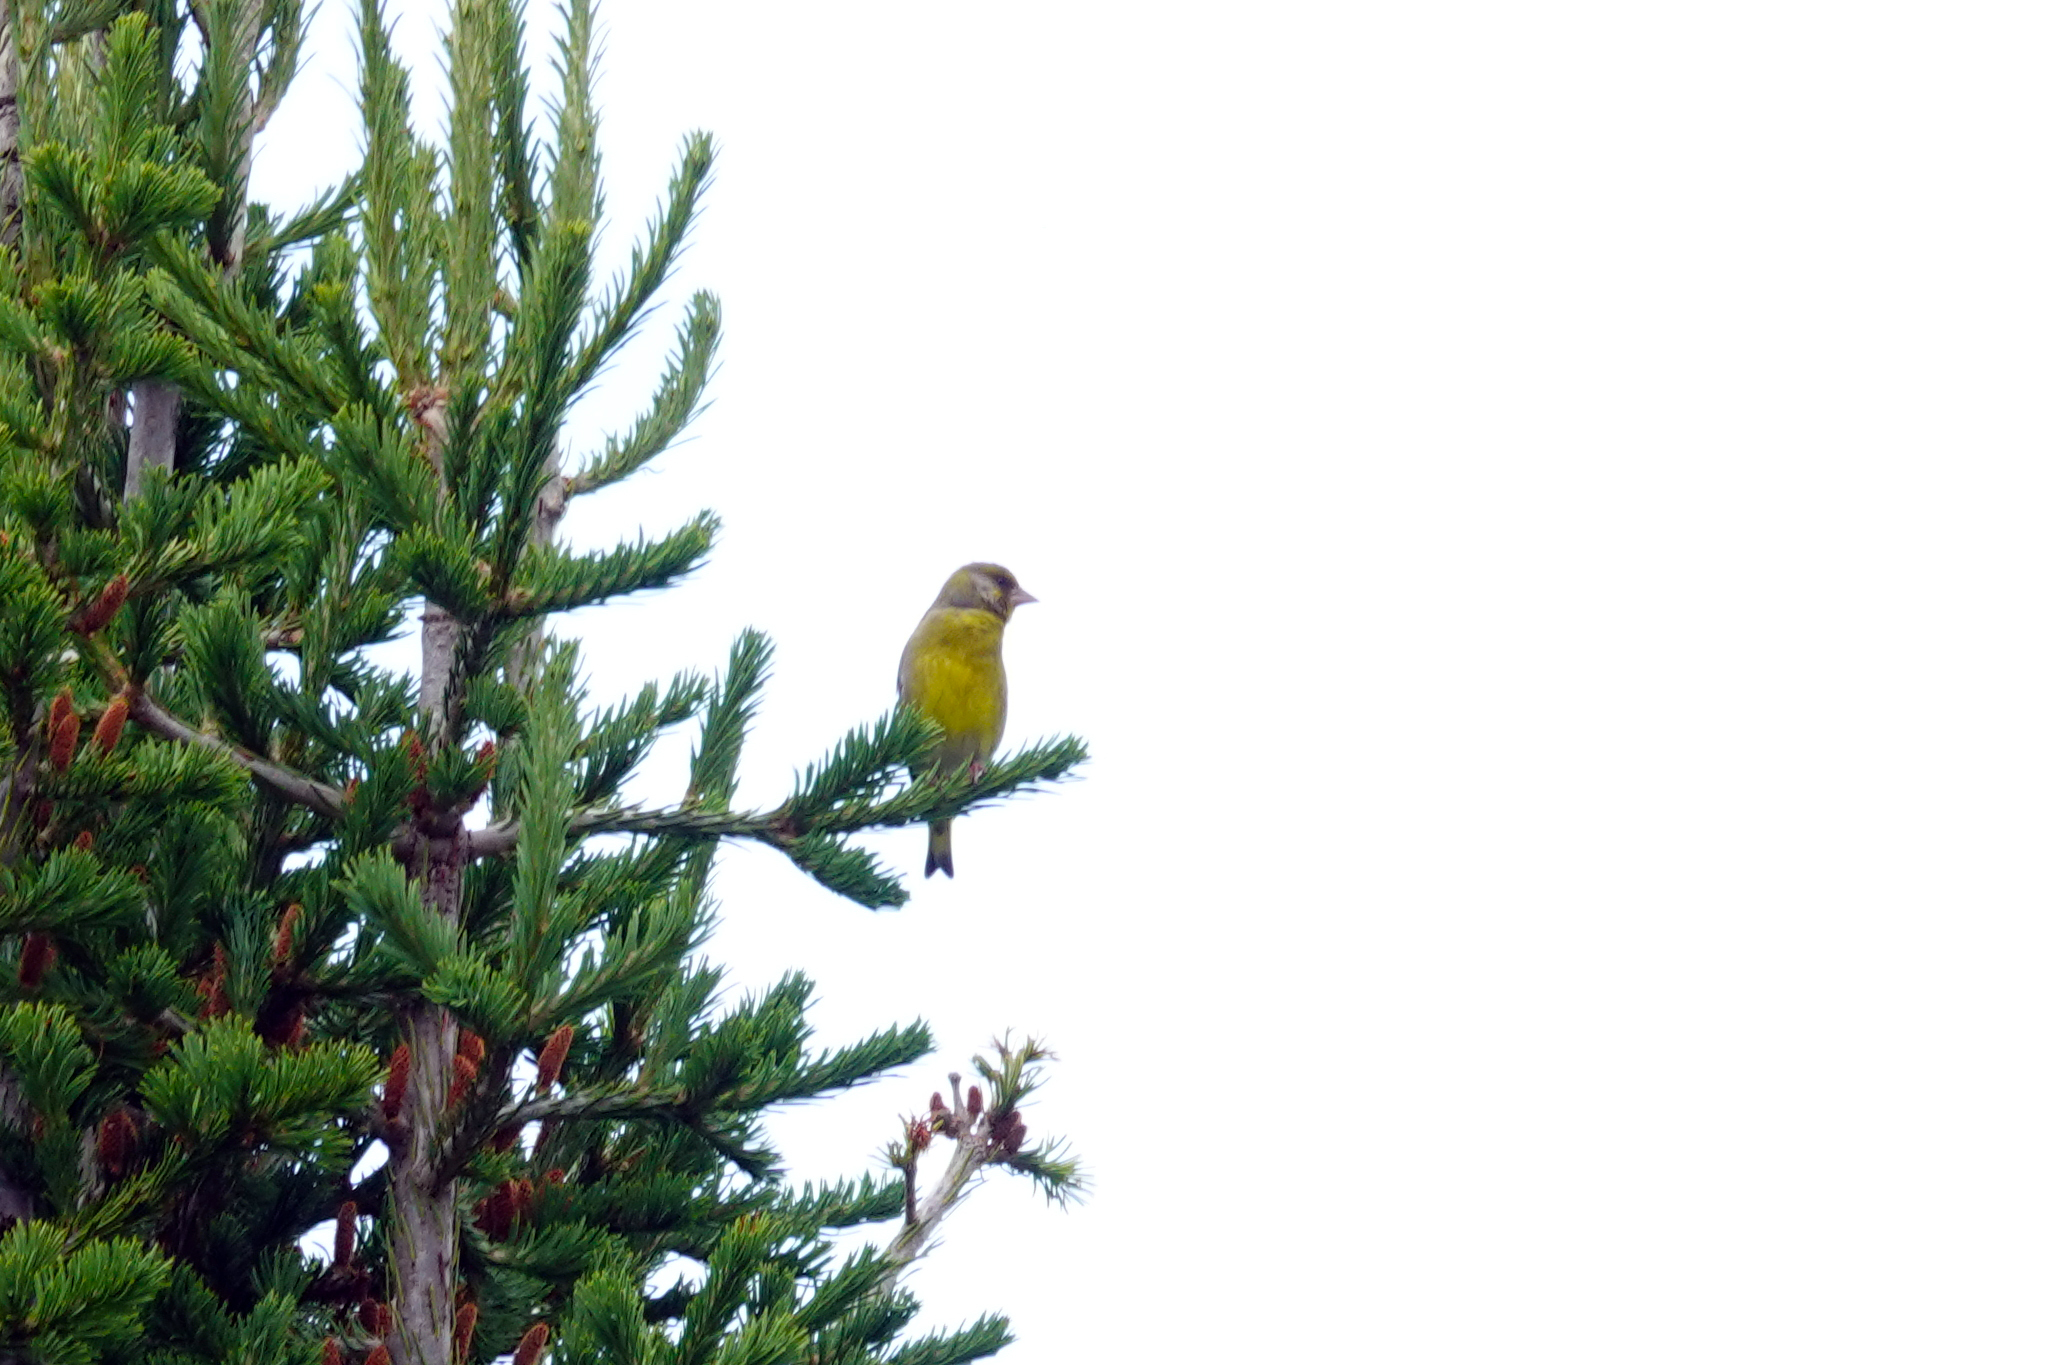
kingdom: Plantae
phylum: Tracheophyta
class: Liliopsida
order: Poales
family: Poaceae
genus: Chloris
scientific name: Chloris chloris
